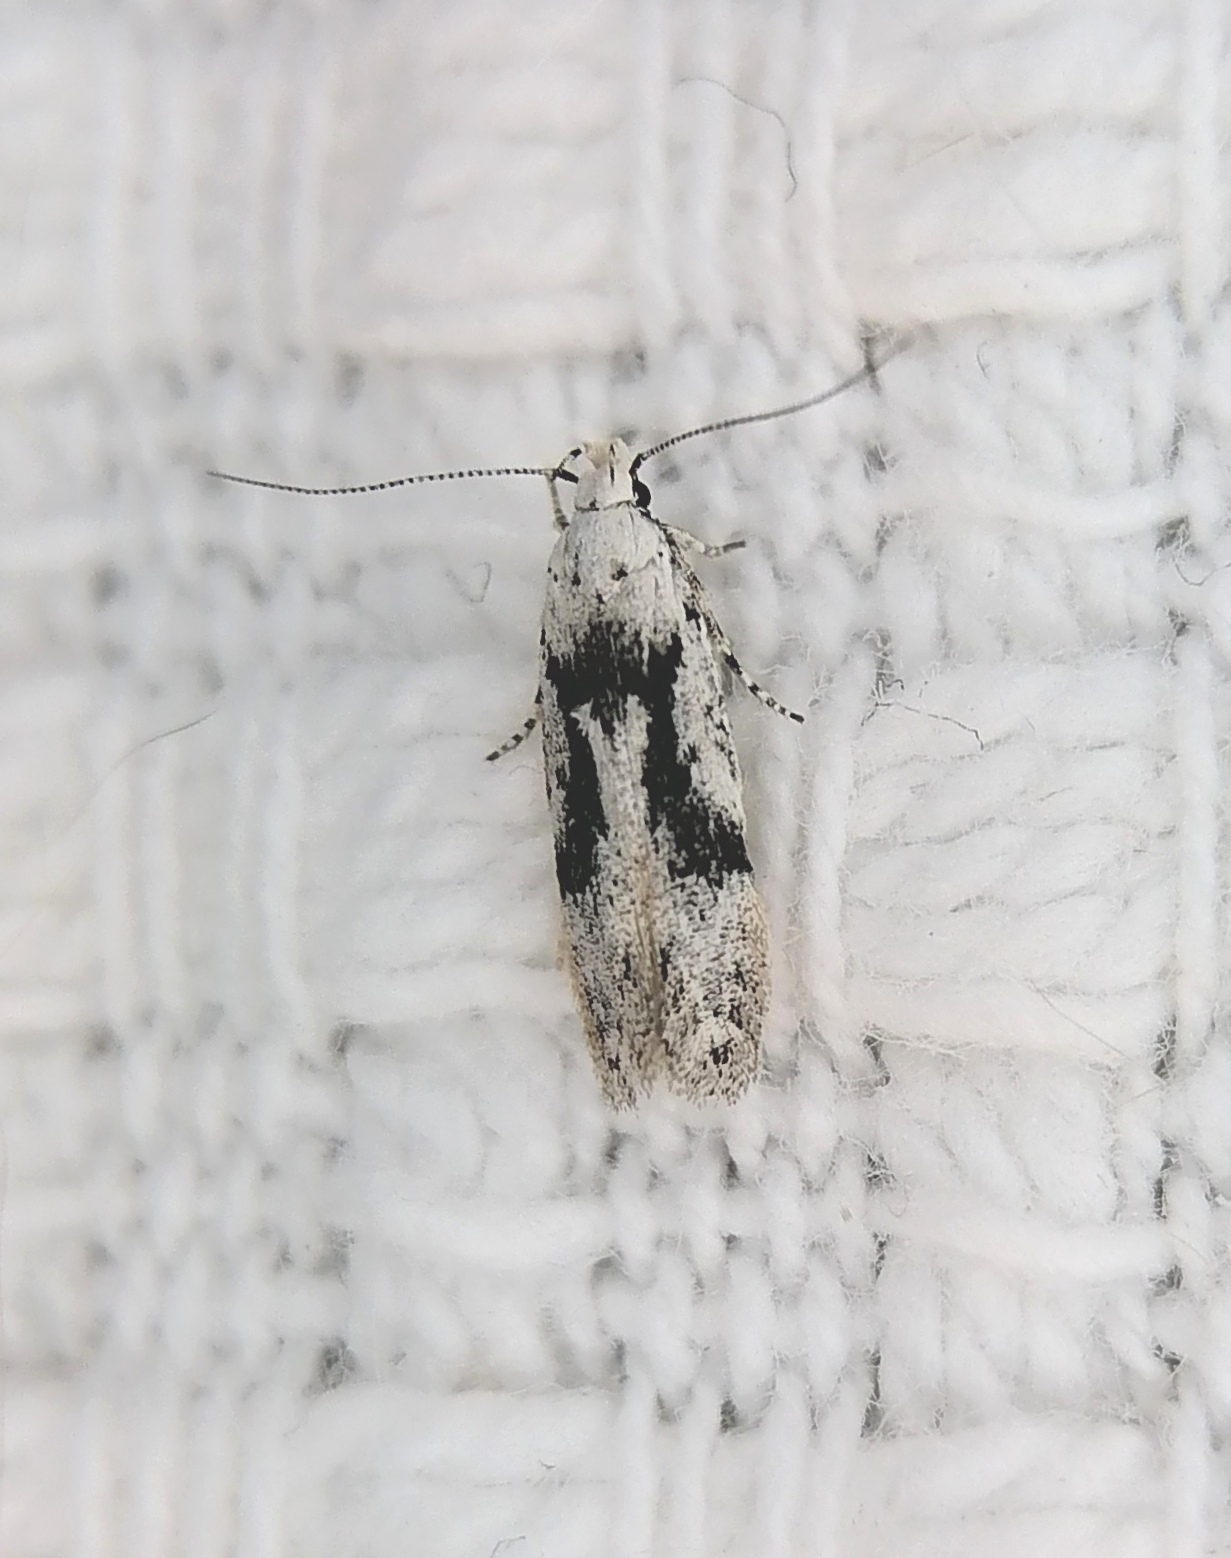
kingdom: Animalia
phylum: Arthropoda
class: Insecta
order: Lepidoptera
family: Gelechiidae
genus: Carpatolechia
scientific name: Carpatolechia alburnella
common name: Suffused groundling
